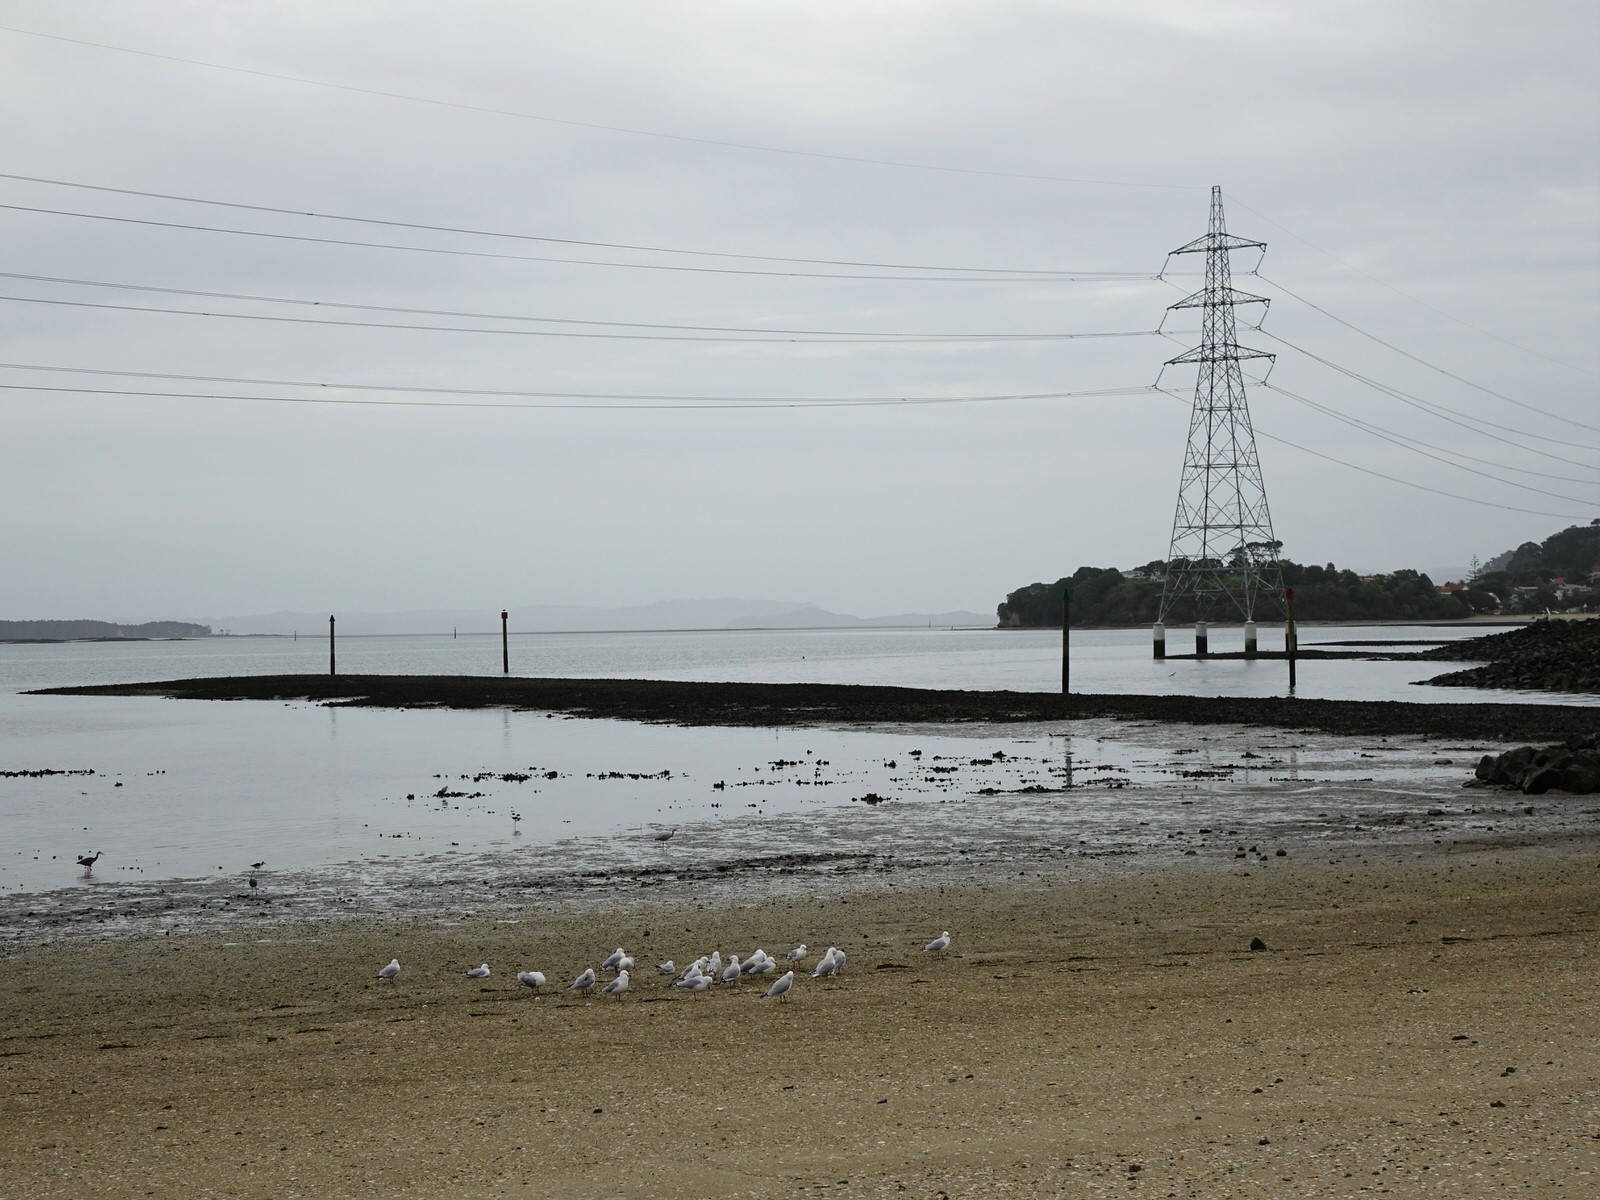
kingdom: Animalia
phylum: Chordata
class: Aves
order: Charadriiformes
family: Laridae
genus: Chroicocephalus
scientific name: Chroicocephalus novaehollandiae
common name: Silver gull
